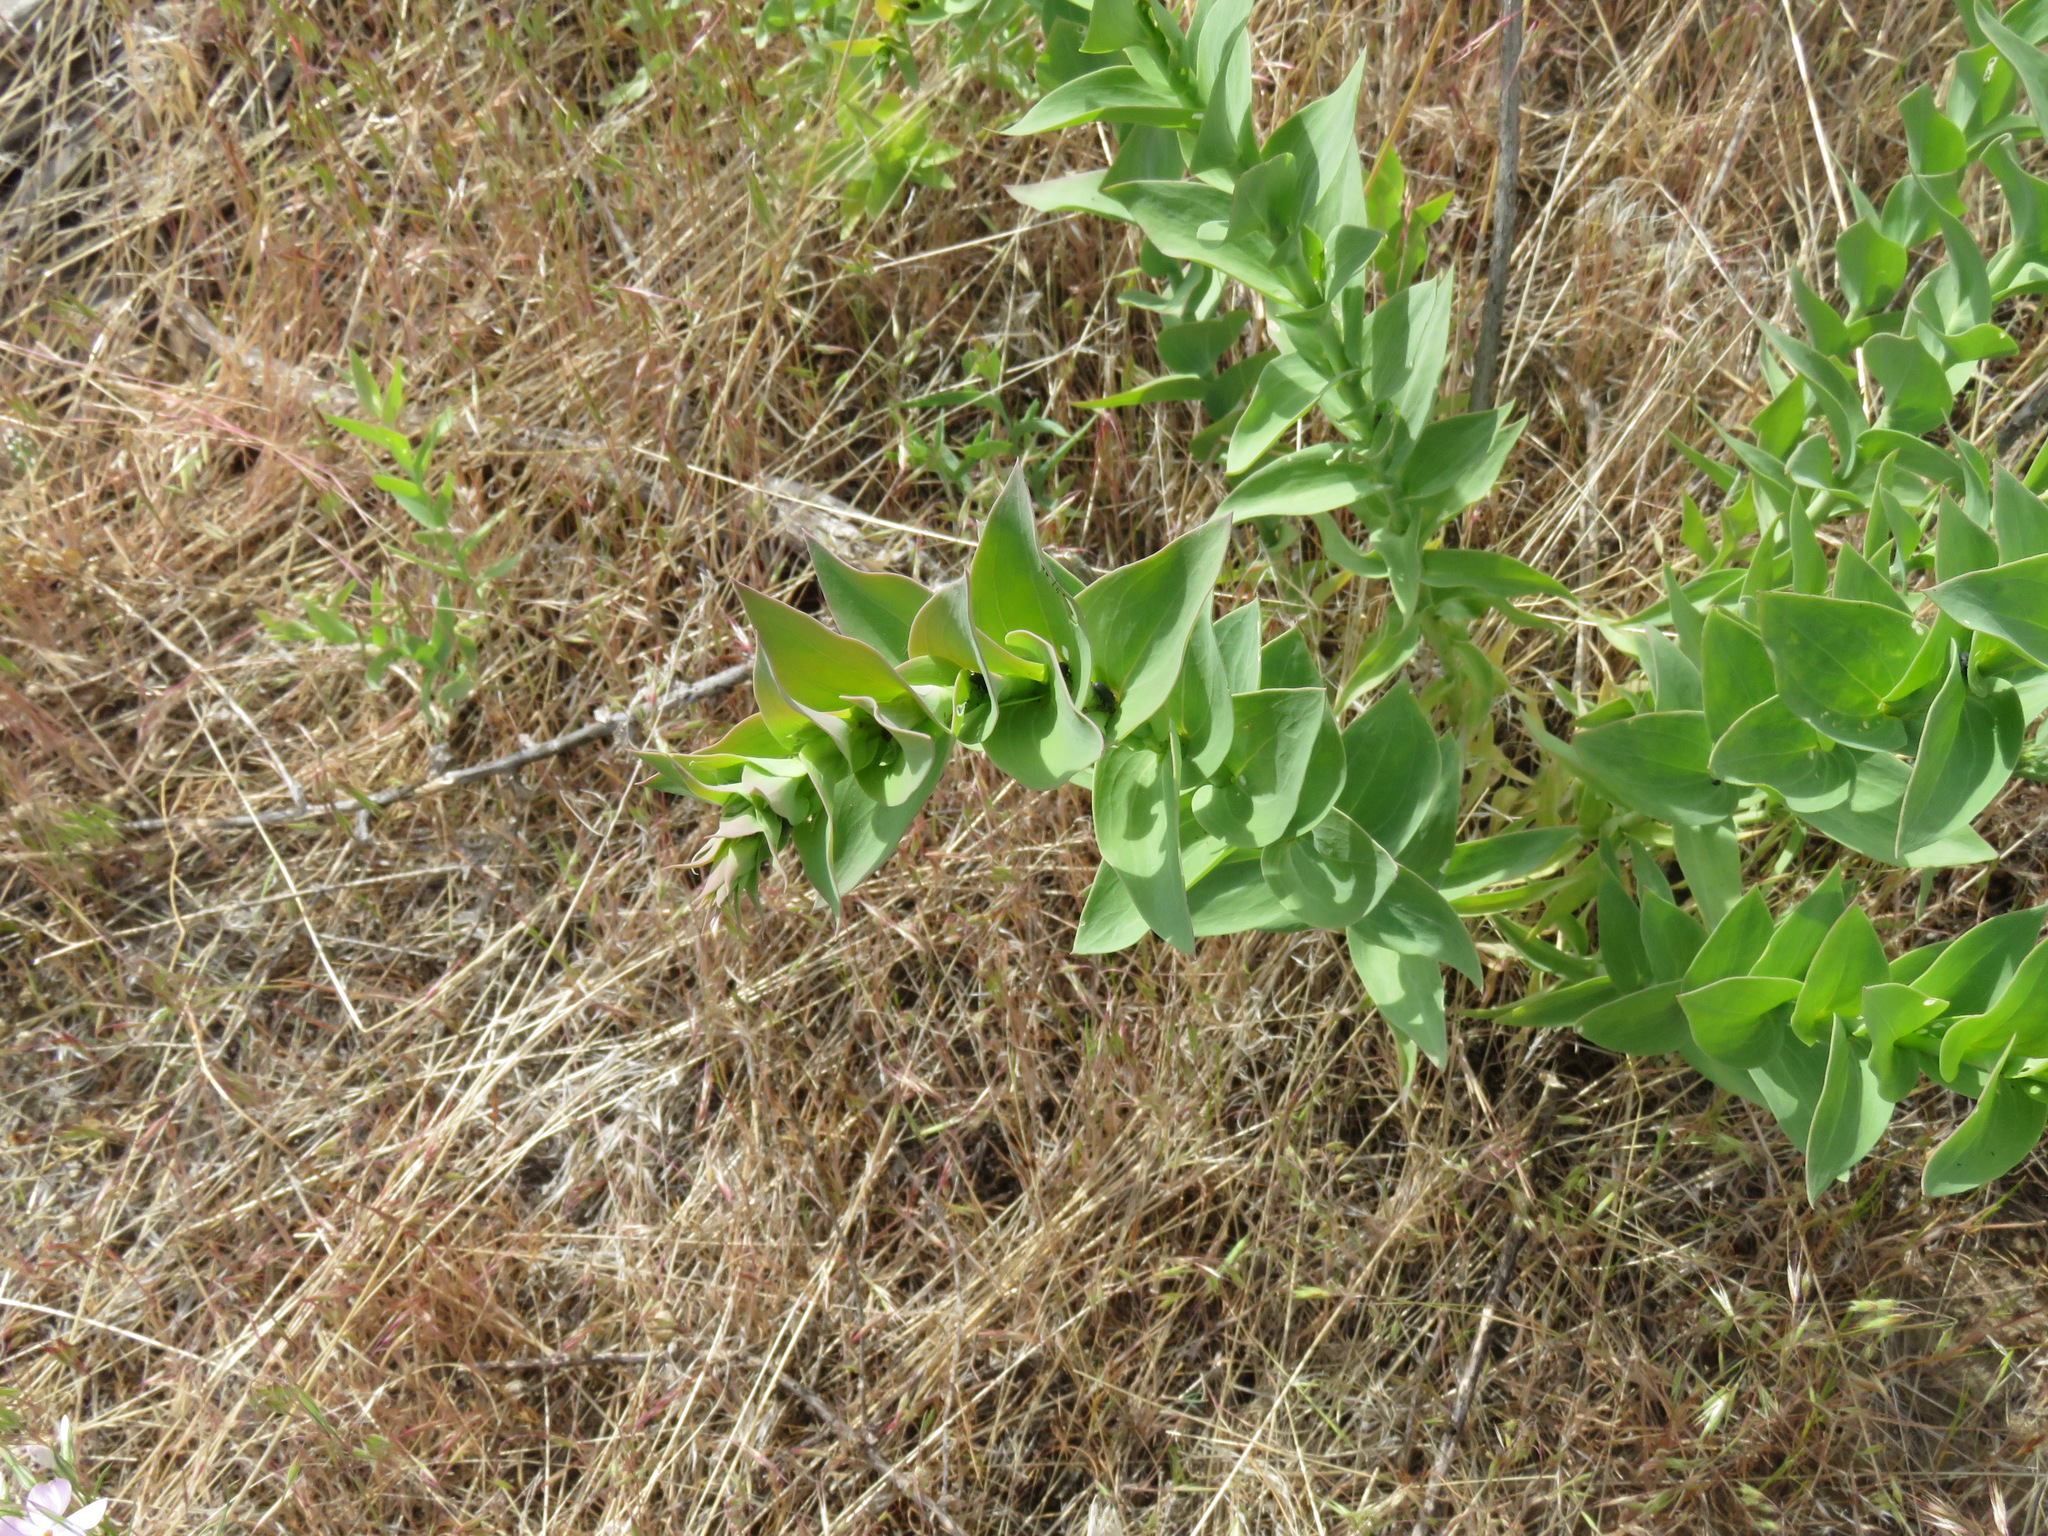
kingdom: Plantae
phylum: Tracheophyta
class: Magnoliopsida
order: Lamiales
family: Plantaginaceae
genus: Linaria
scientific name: Linaria dalmatica
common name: Dalmatian toadflax
